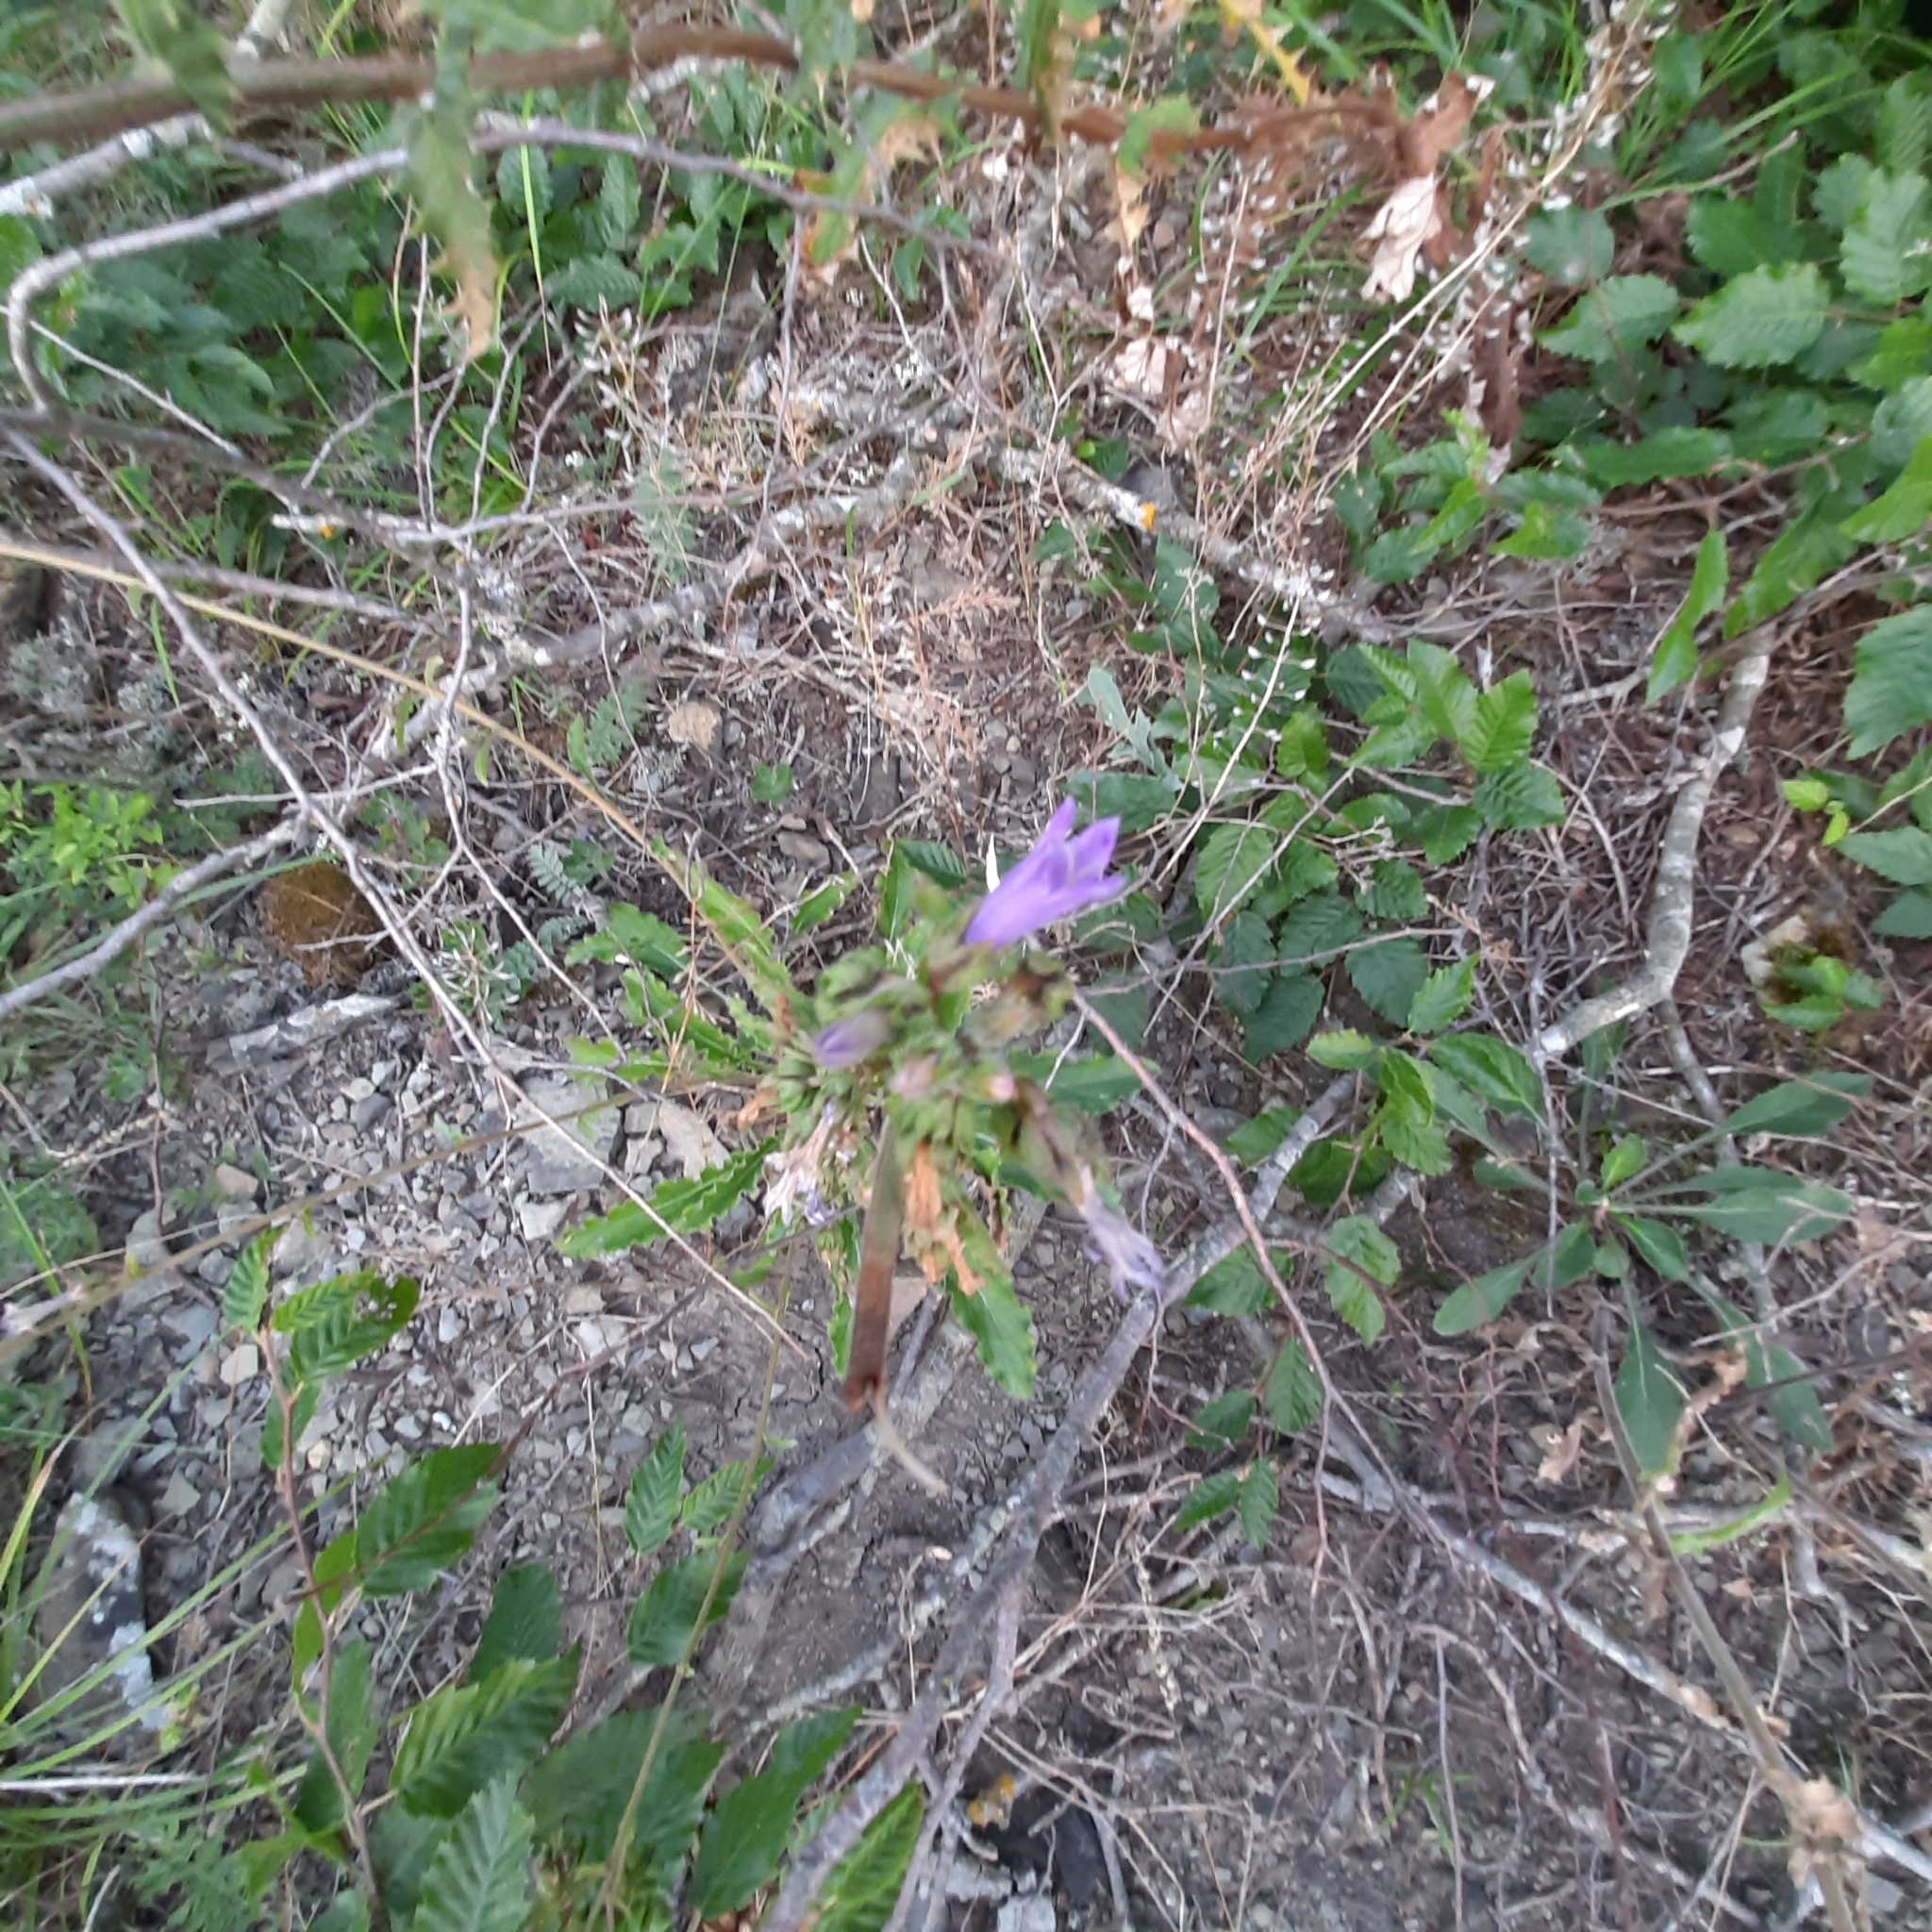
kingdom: Plantae
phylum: Tracheophyta
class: Magnoliopsida
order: Asterales
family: Campanulaceae
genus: Campanula
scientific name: Campanula komarovii
